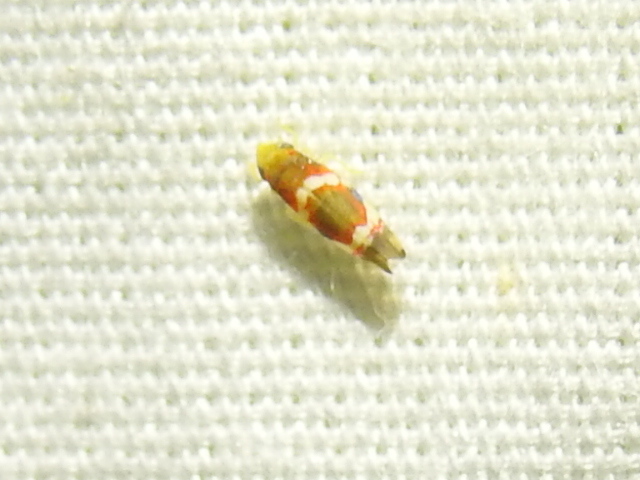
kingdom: Animalia
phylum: Arthropoda
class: Insecta
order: Hemiptera
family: Cicadellidae
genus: Erythroneura
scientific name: Erythroneura vitis
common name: Grapevine leafhopper
